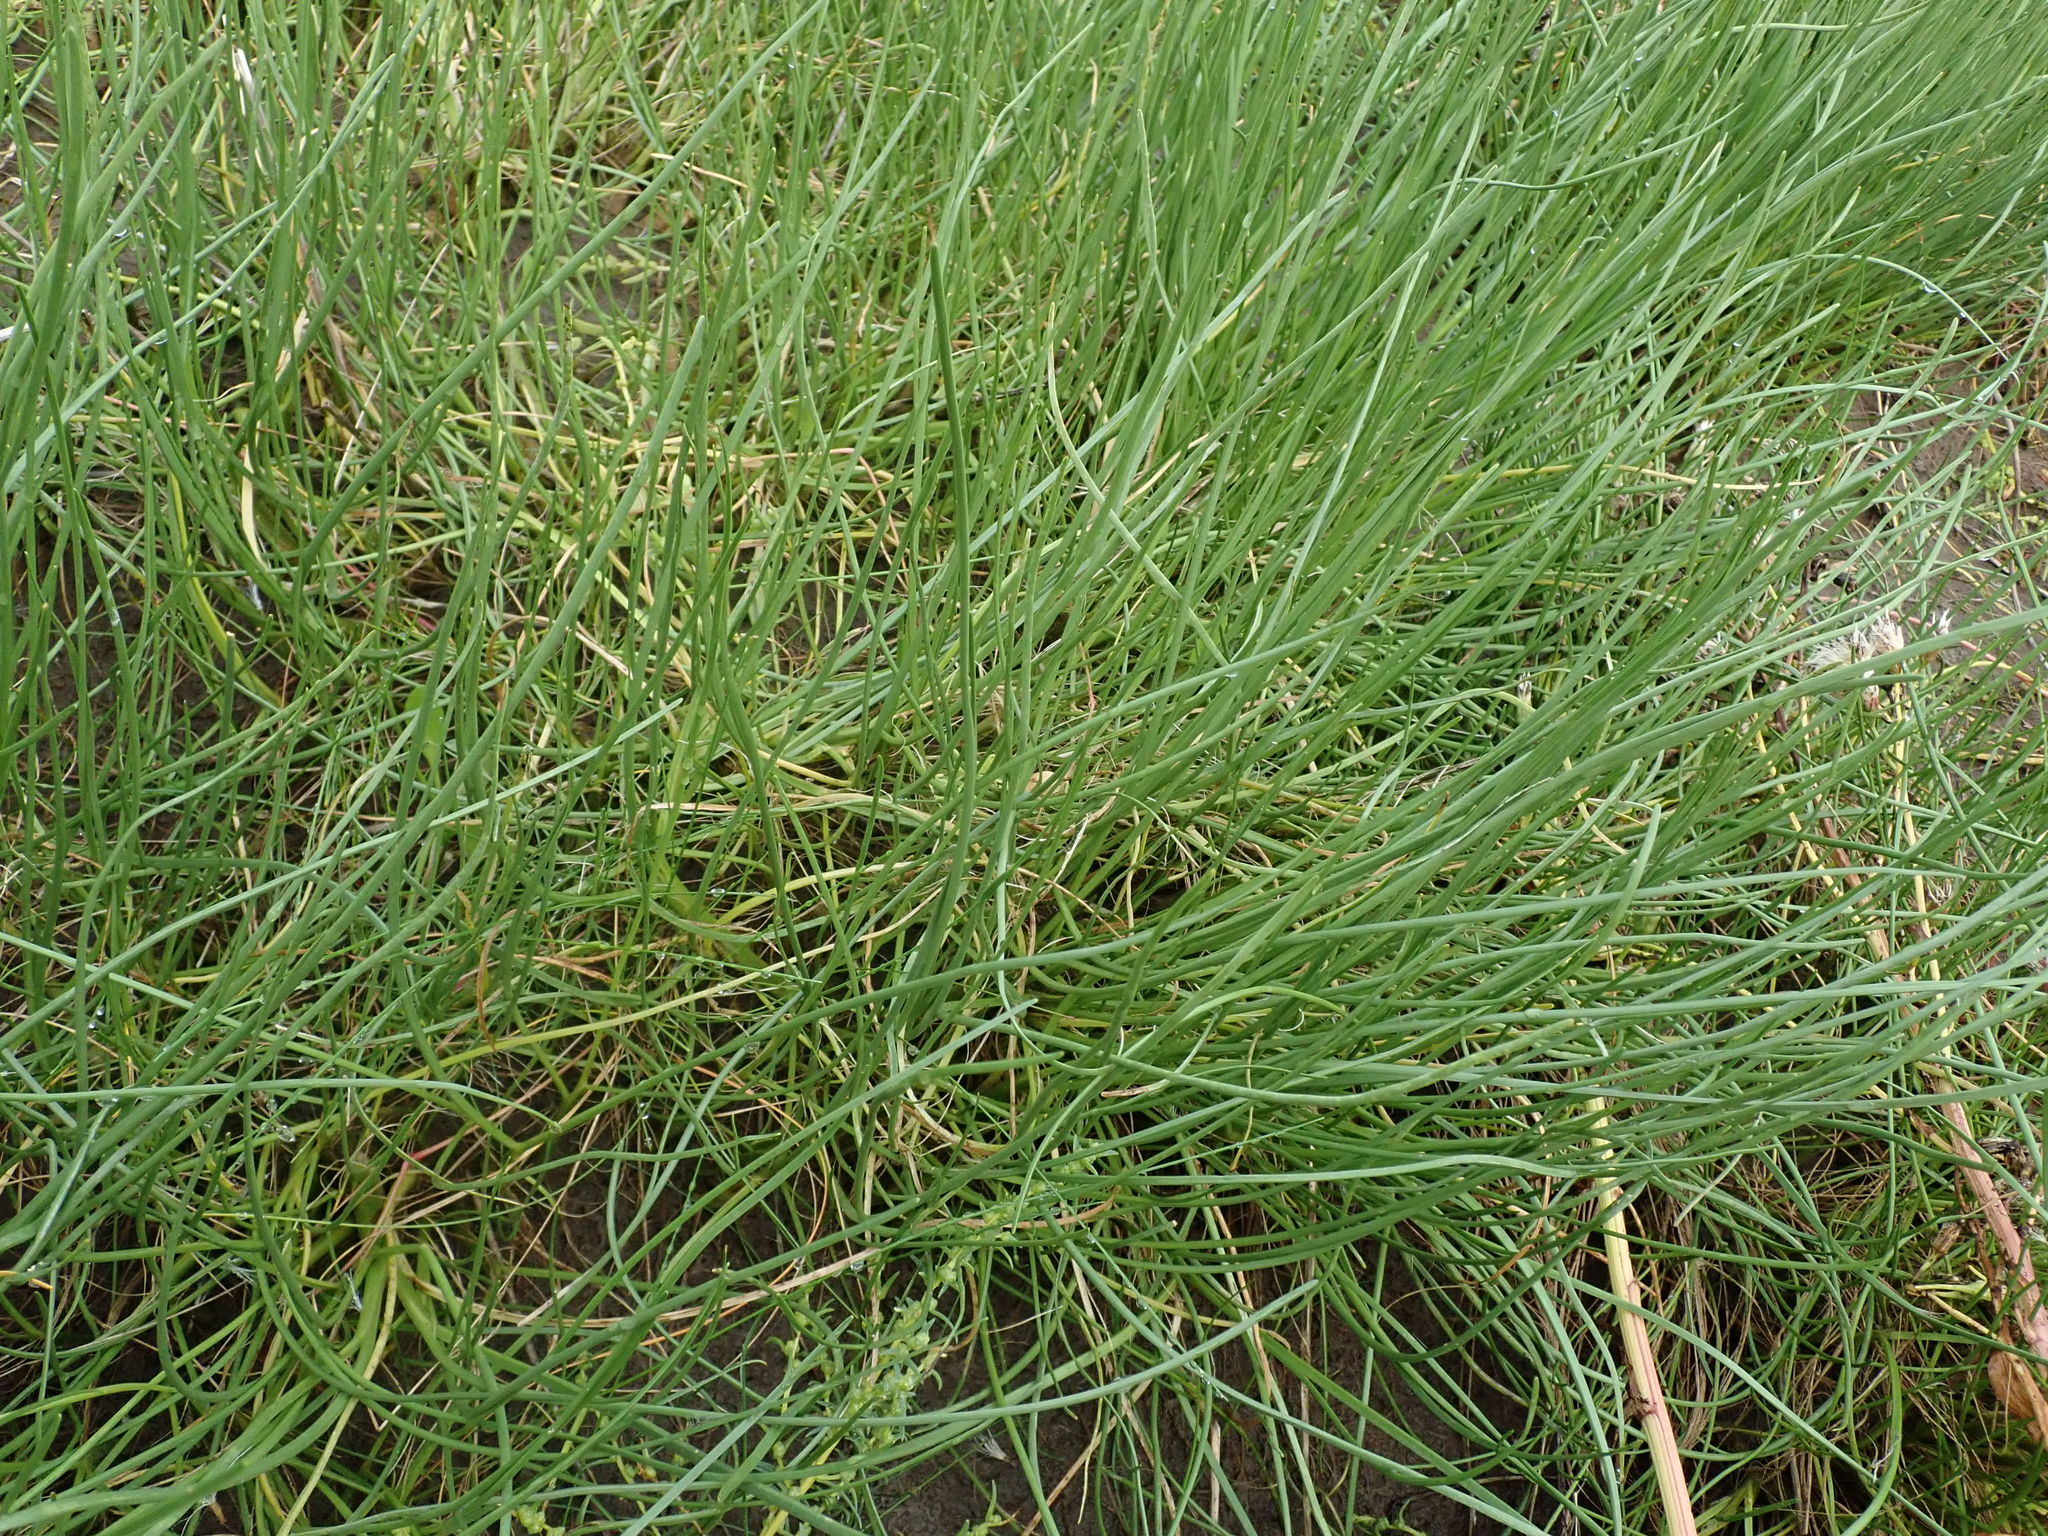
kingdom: Plantae
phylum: Tracheophyta
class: Liliopsida
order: Alismatales
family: Juncaginaceae
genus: Triglochin
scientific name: Triglochin maritima
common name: Sea arrowgrass
